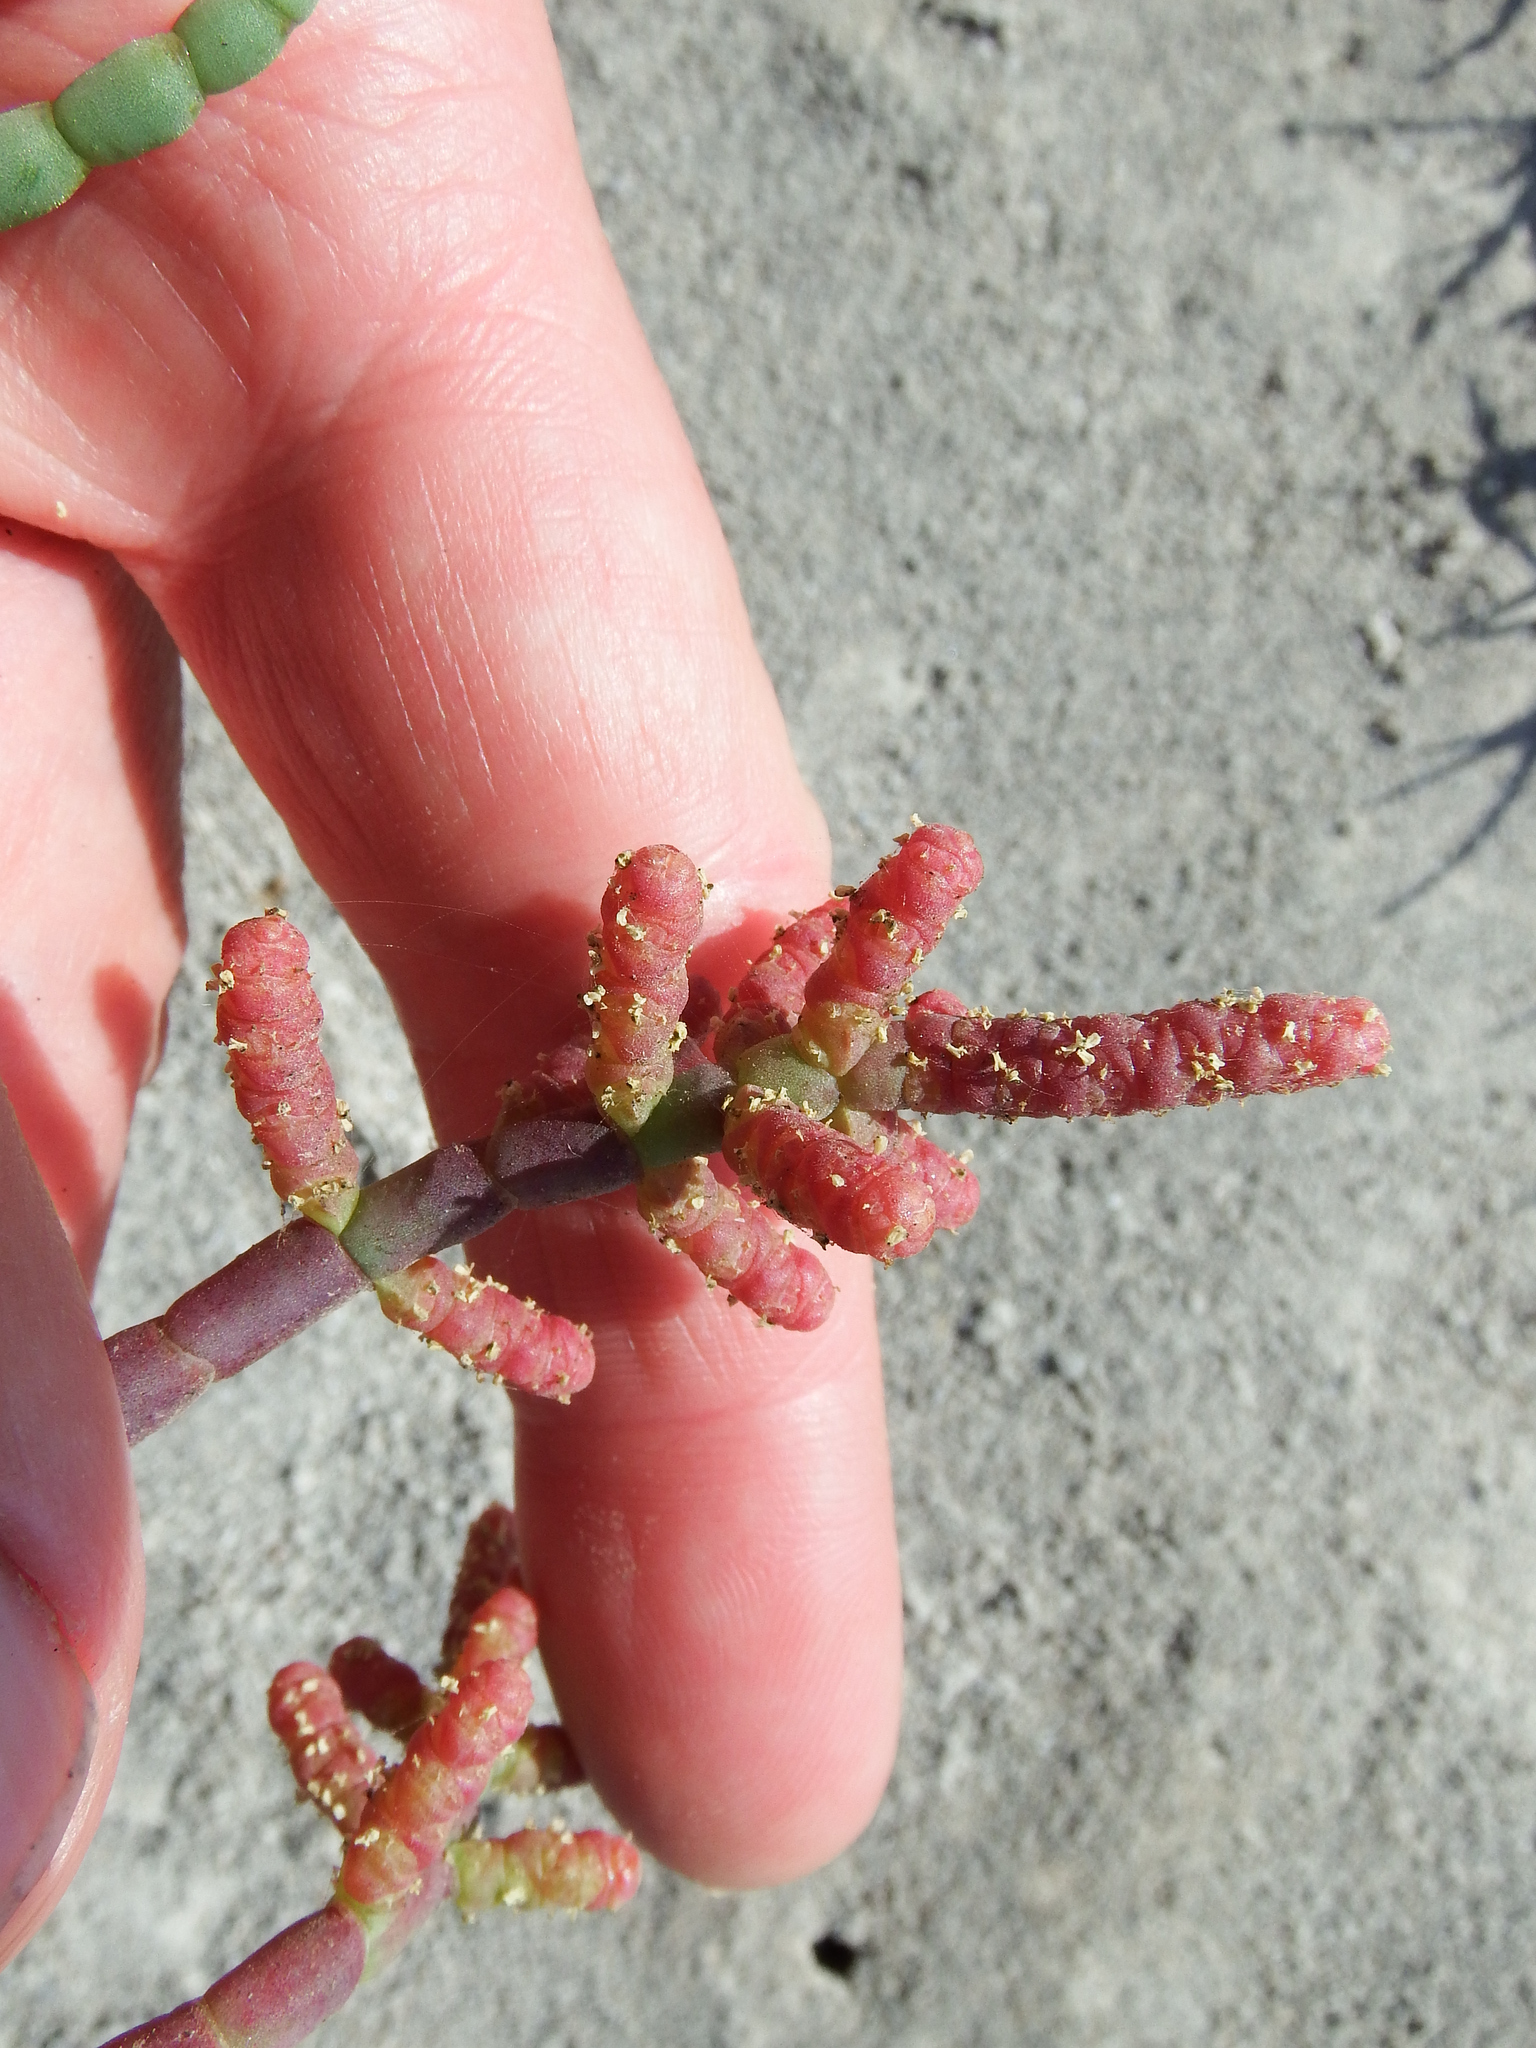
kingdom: Plantae
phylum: Tracheophyta
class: Magnoliopsida
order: Caryophyllales
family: Amaranthaceae
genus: Salicornia
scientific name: Salicornia neei
